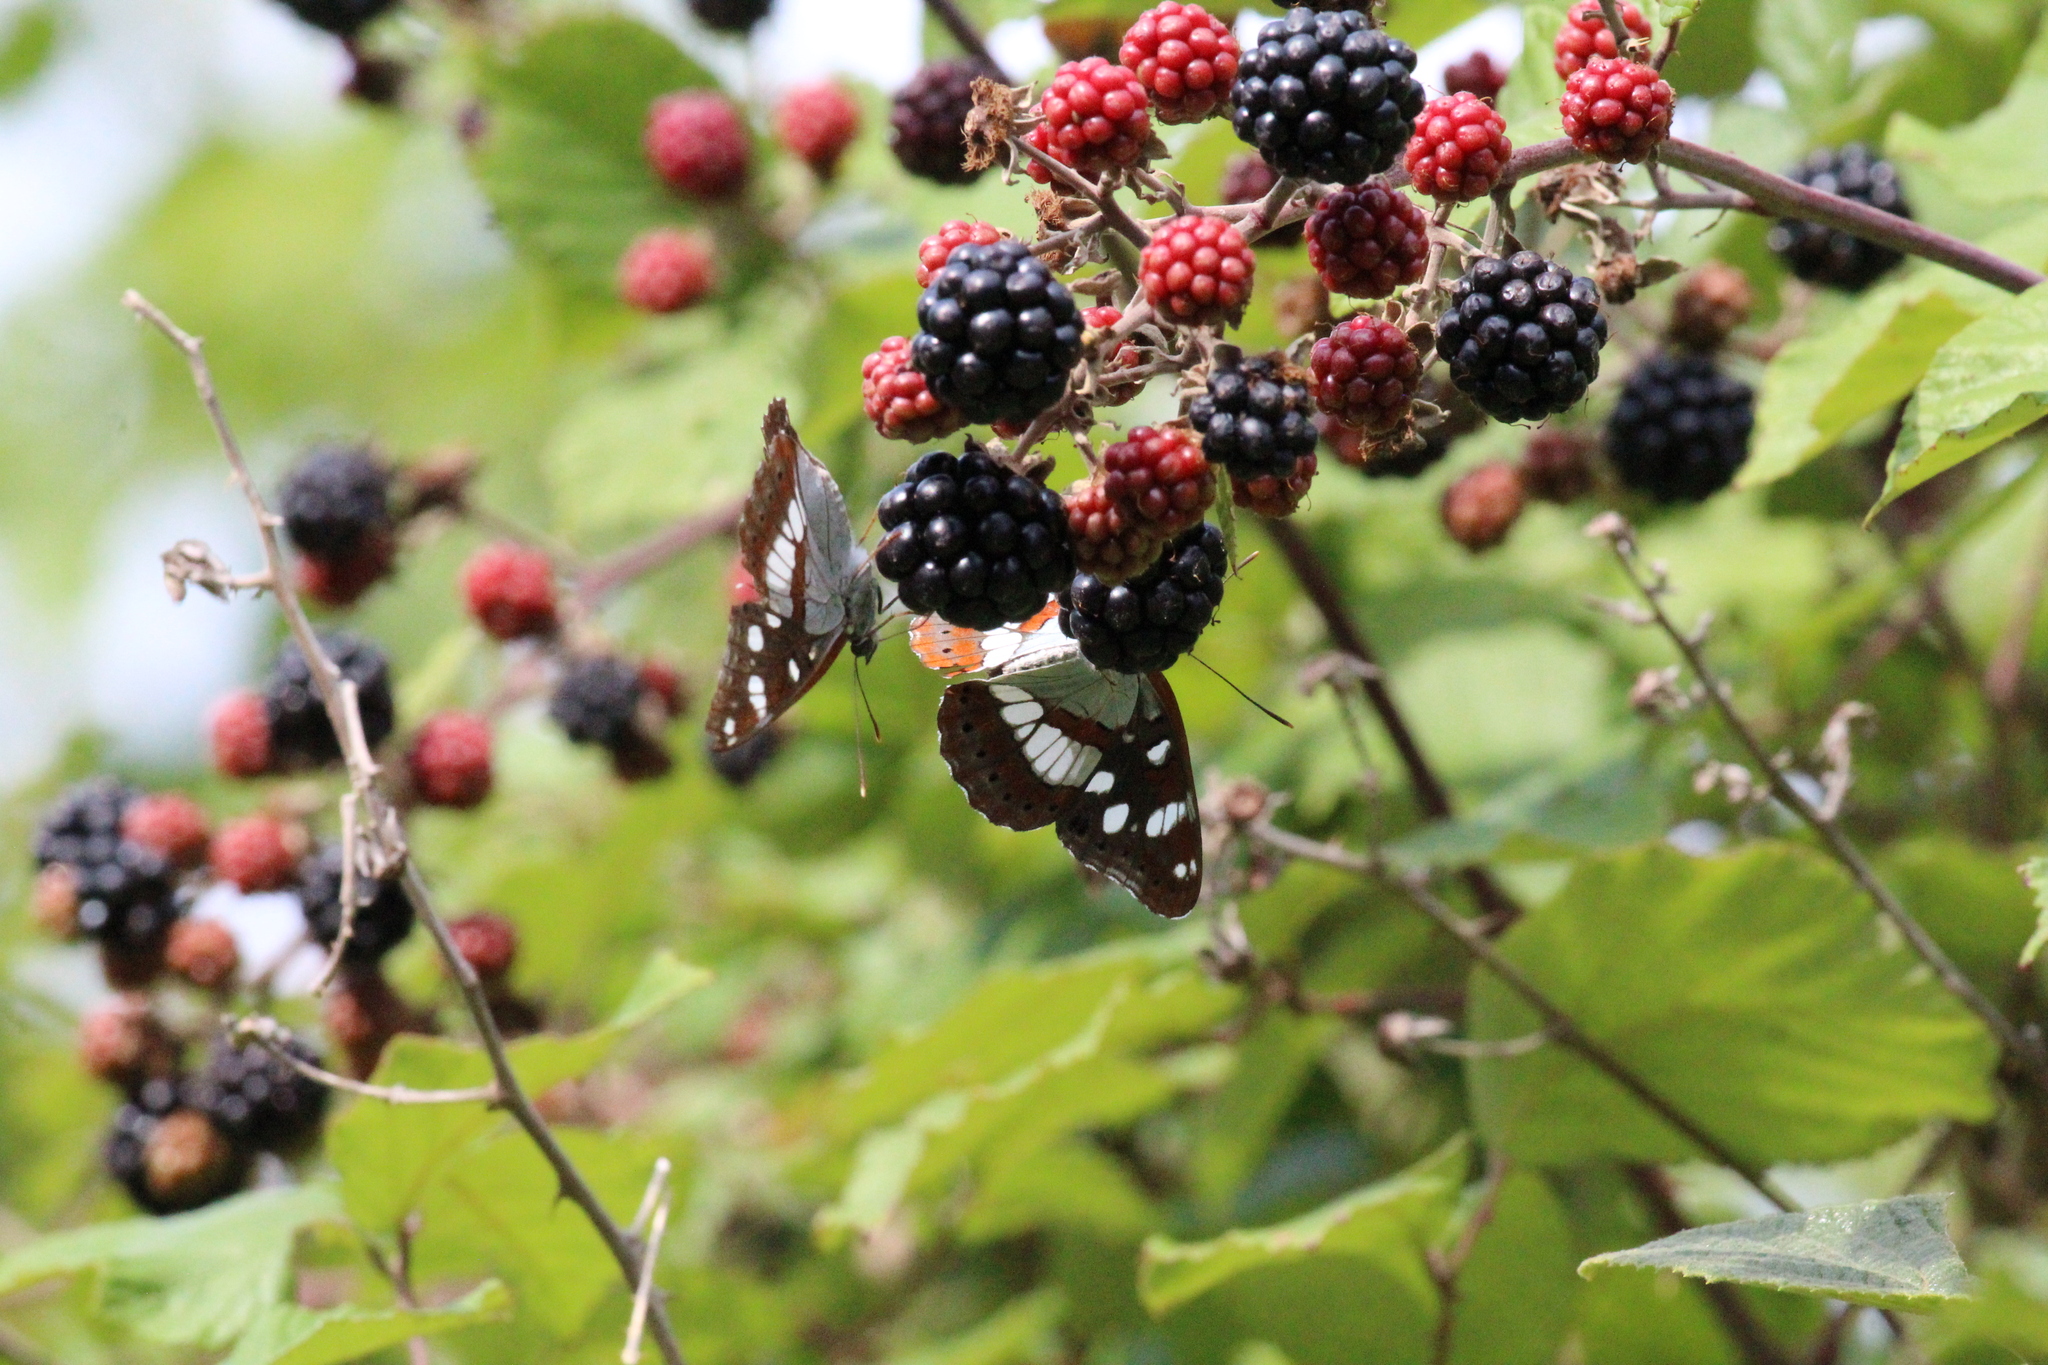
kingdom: Animalia
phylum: Arthropoda
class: Insecta
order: Lepidoptera
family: Nymphalidae
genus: Limenitis
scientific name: Limenitis reducta
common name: Southern white admiral
